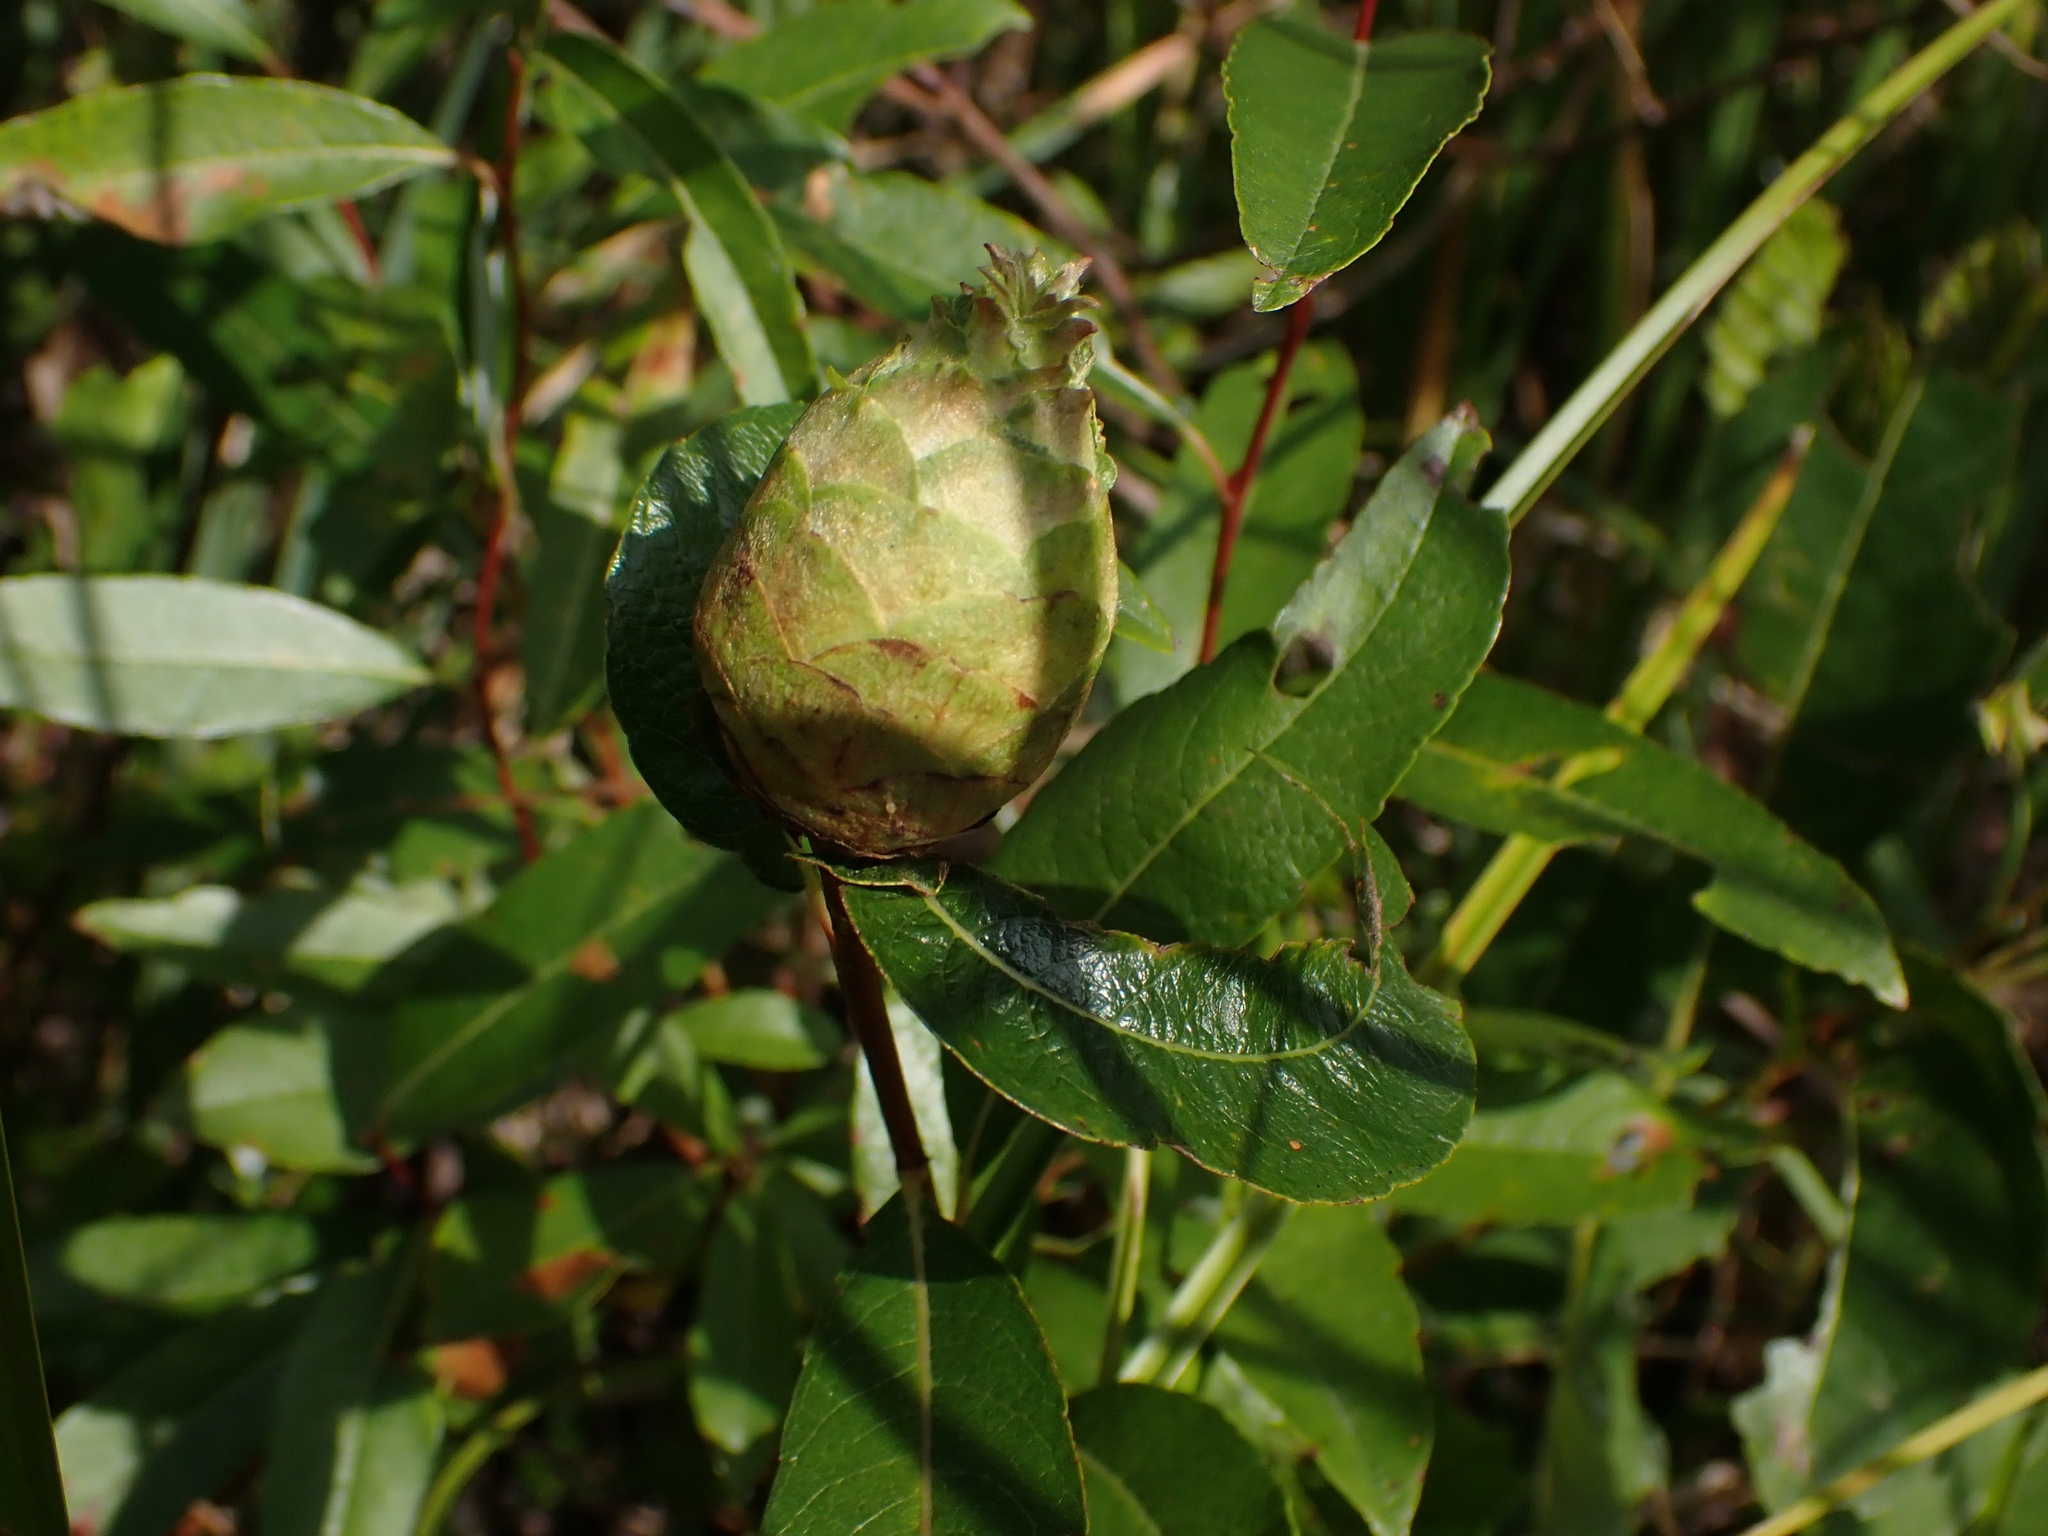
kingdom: Animalia
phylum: Arthropoda
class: Insecta
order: Diptera
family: Cecidomyiidae
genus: Rabdophaga
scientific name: Rabdophaga strobiloides
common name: Willow pinecone gall midge
